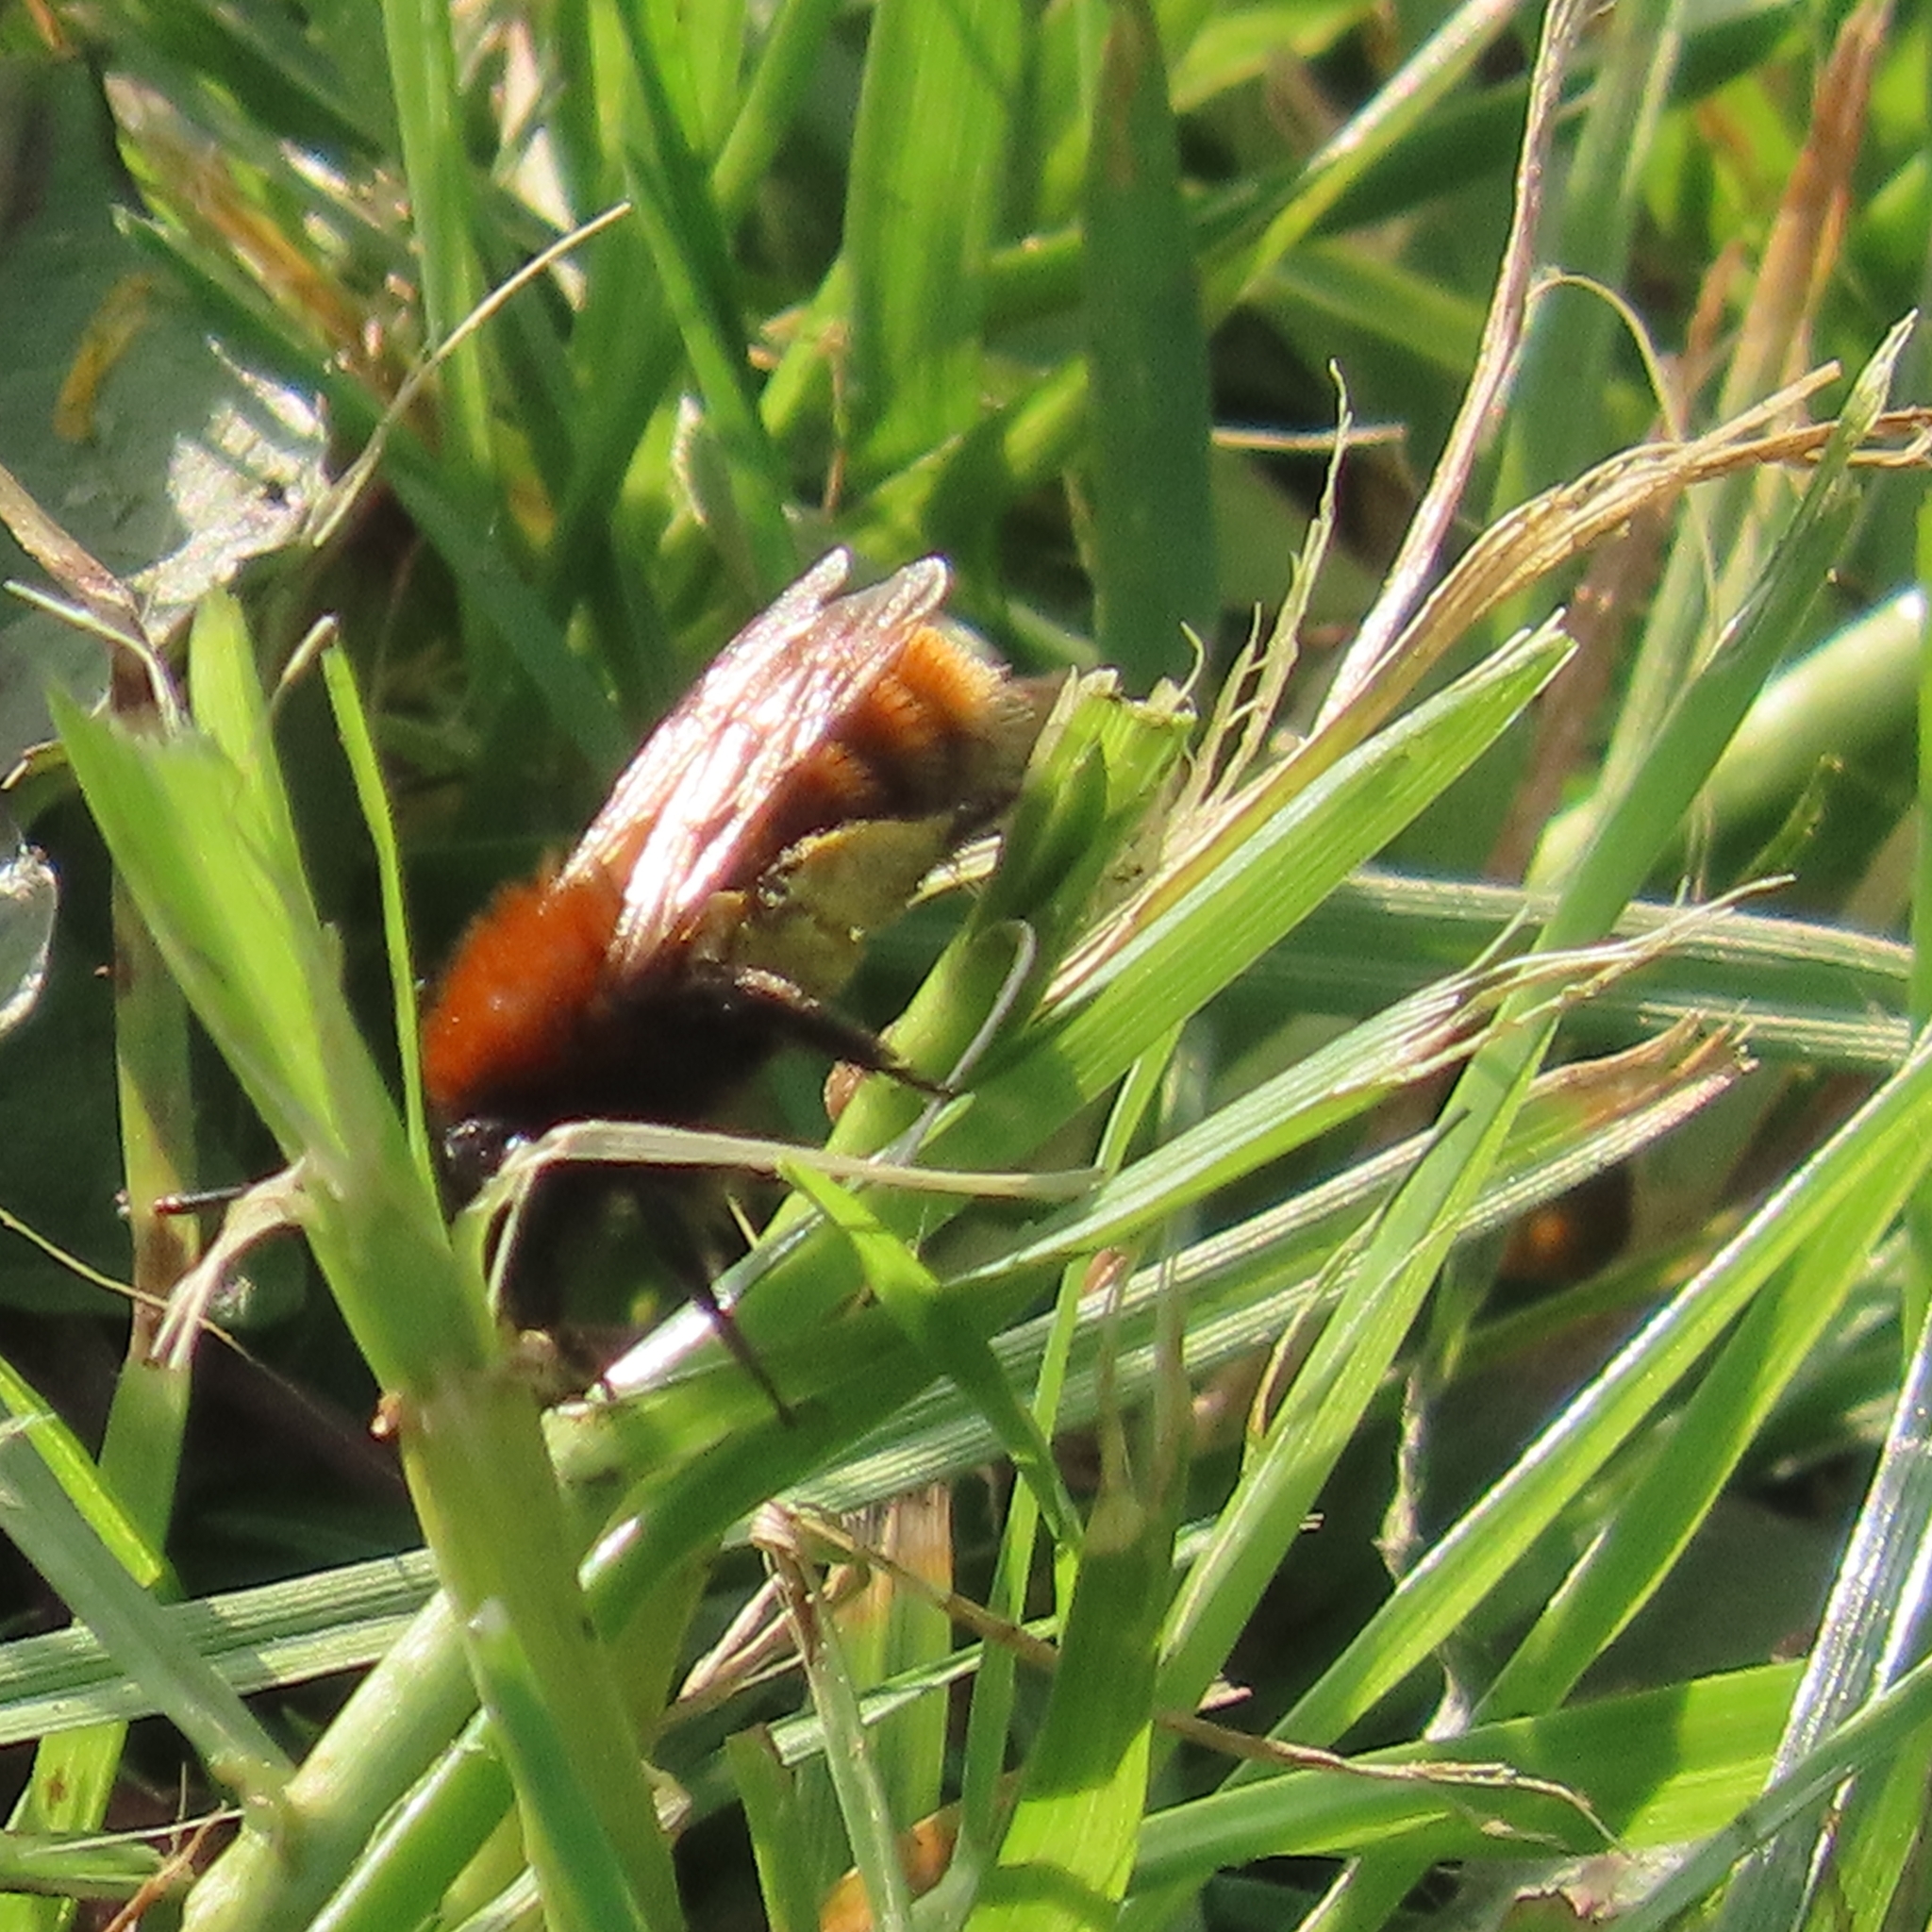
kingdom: Animalia
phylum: Arthropoda
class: Insecta
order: Hymenoptera
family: Andrenidae
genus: Andrena
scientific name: Andrena fulva
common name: Tawny mining bee
